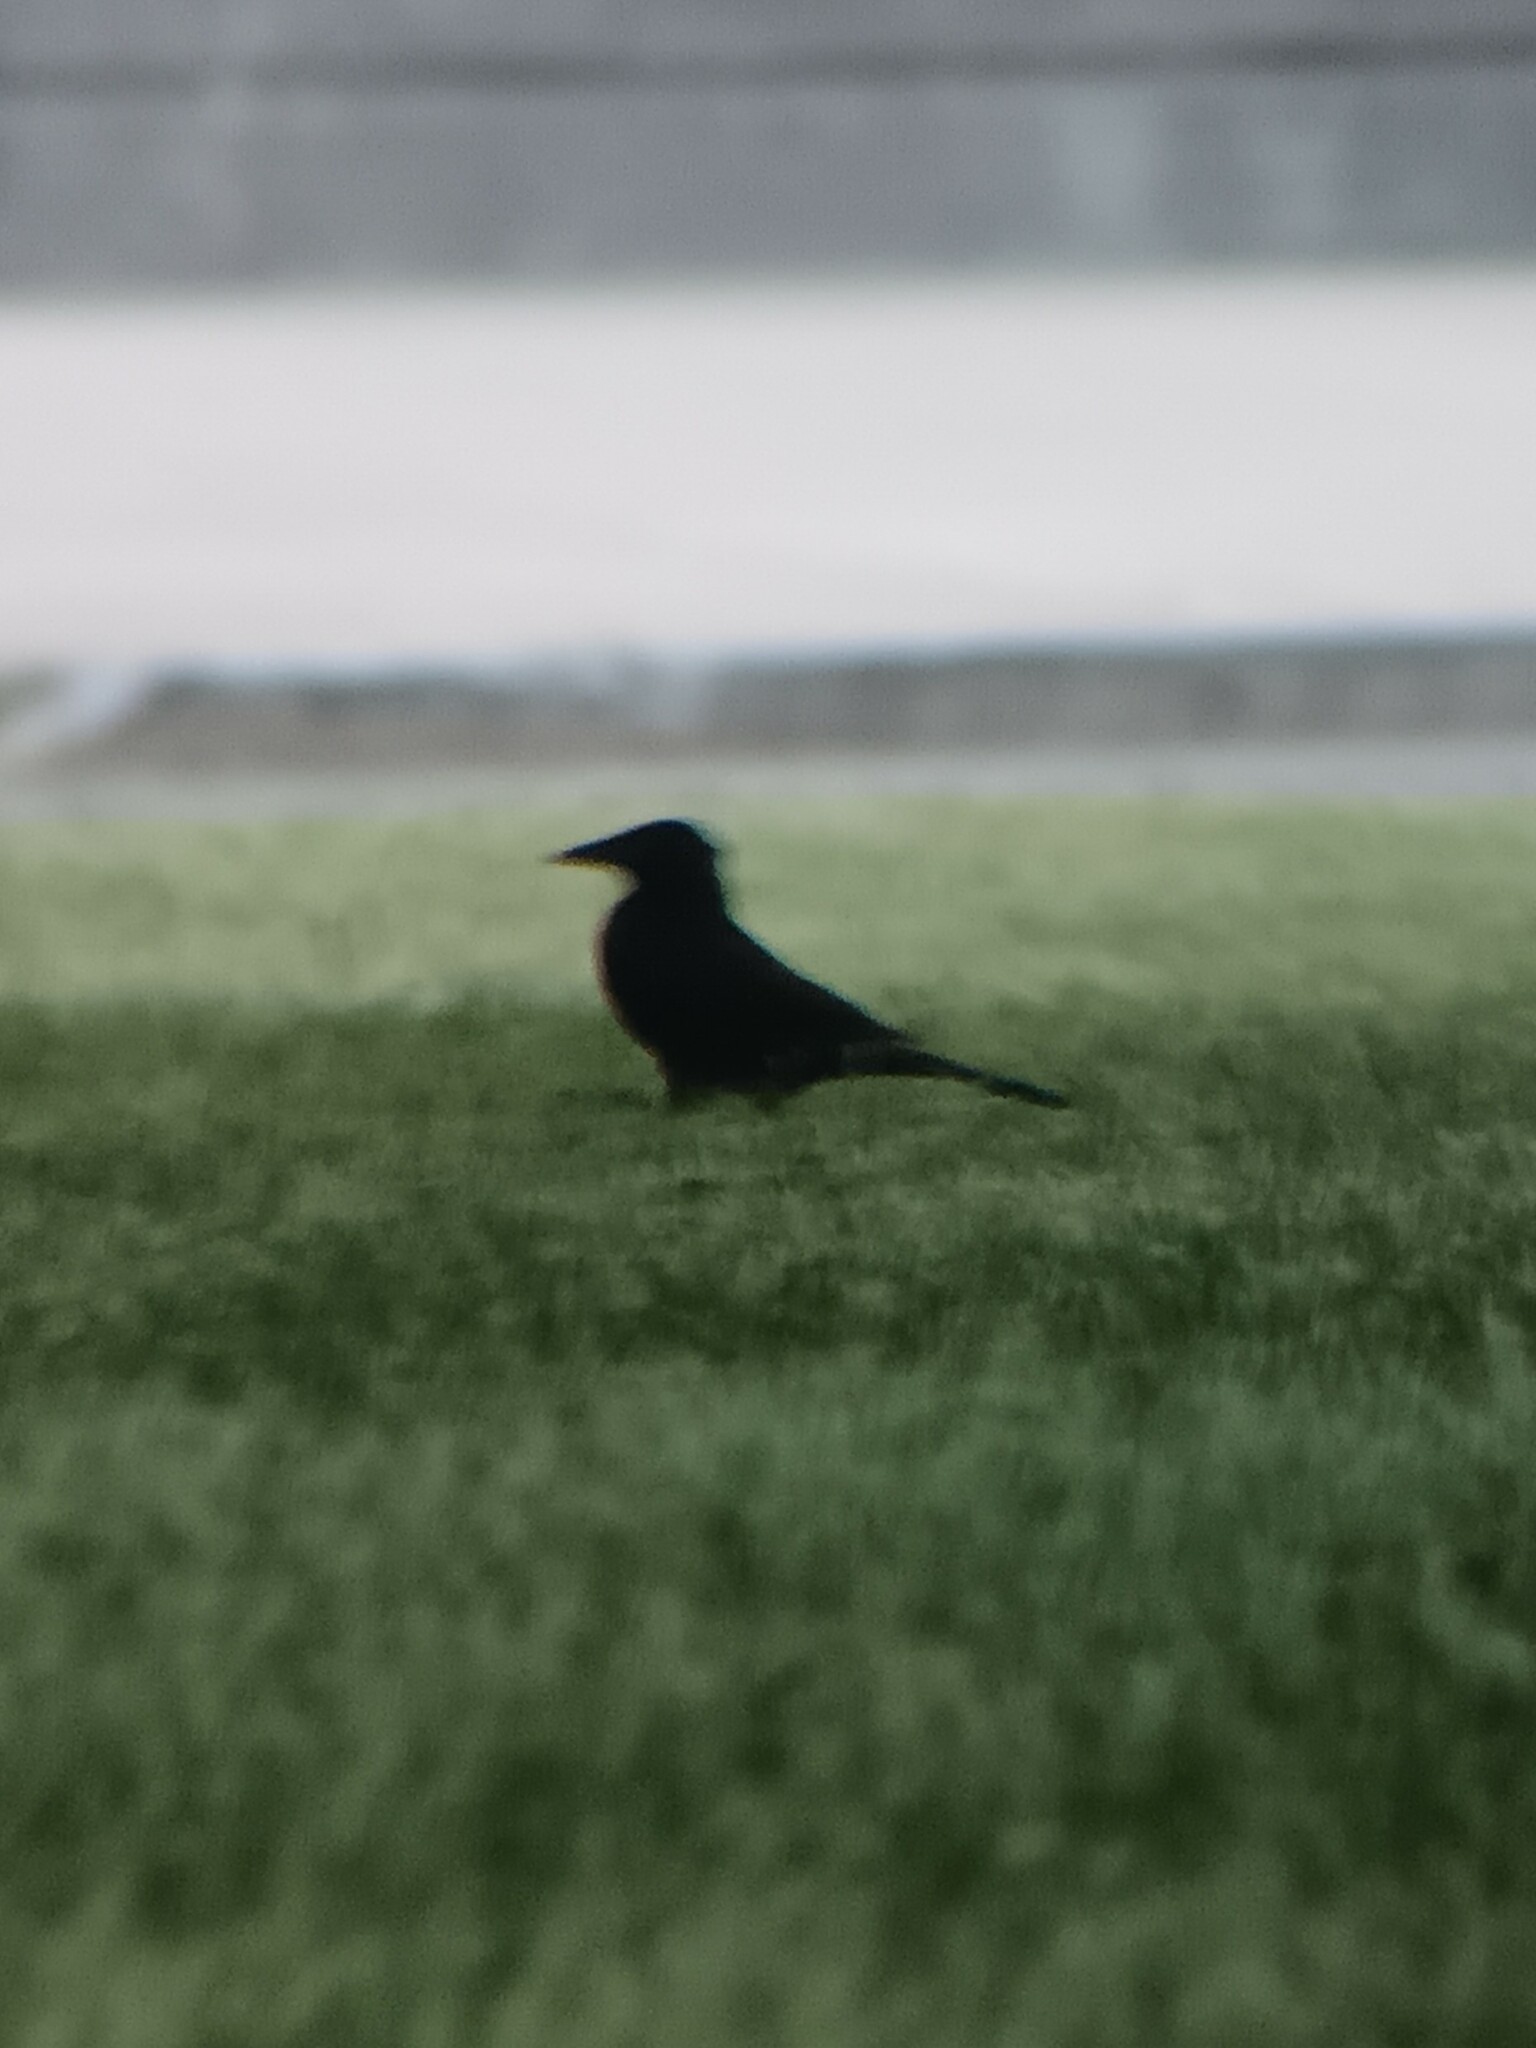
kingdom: Animalia
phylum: Chordata
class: Aves
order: Passeriformes
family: Icteridae
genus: Quiscalus
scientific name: Quiscalus quiscula
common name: Common grackle
